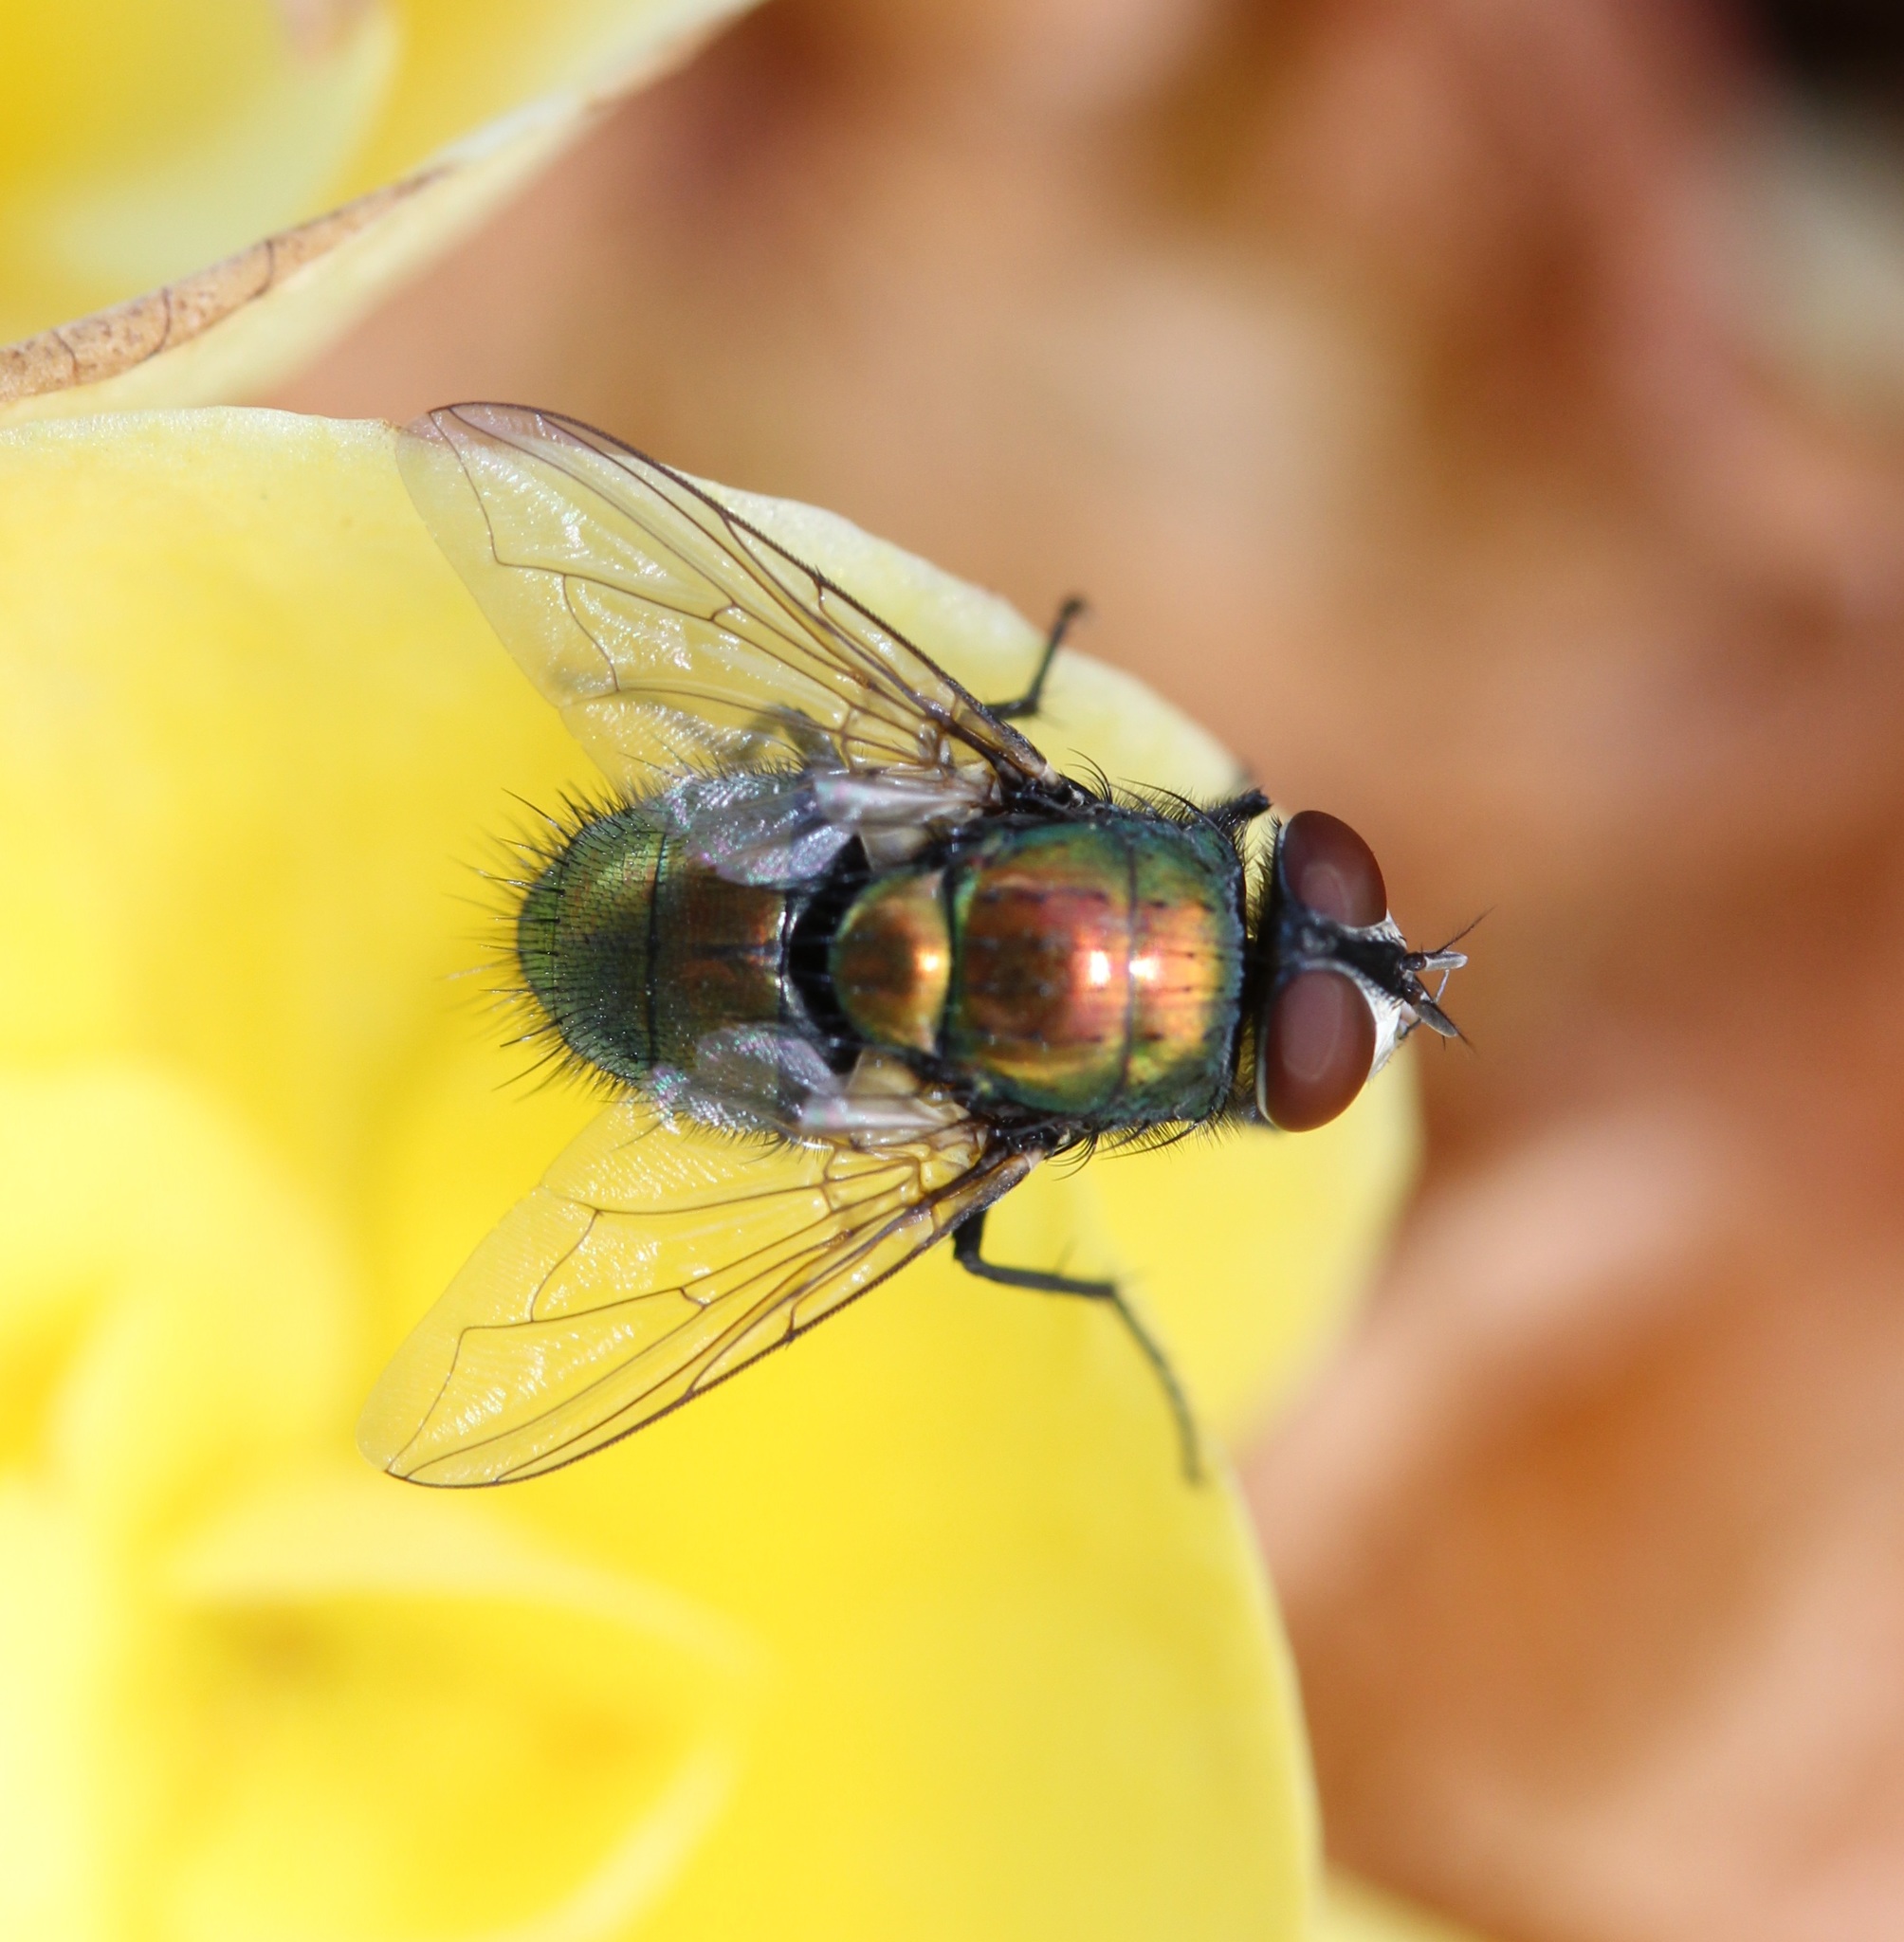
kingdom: Animalia
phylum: Arthropoda
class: Insecta
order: Diptera
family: Calliphoridae
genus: Lucilia
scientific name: Lucilia sericata
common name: Blow fly
